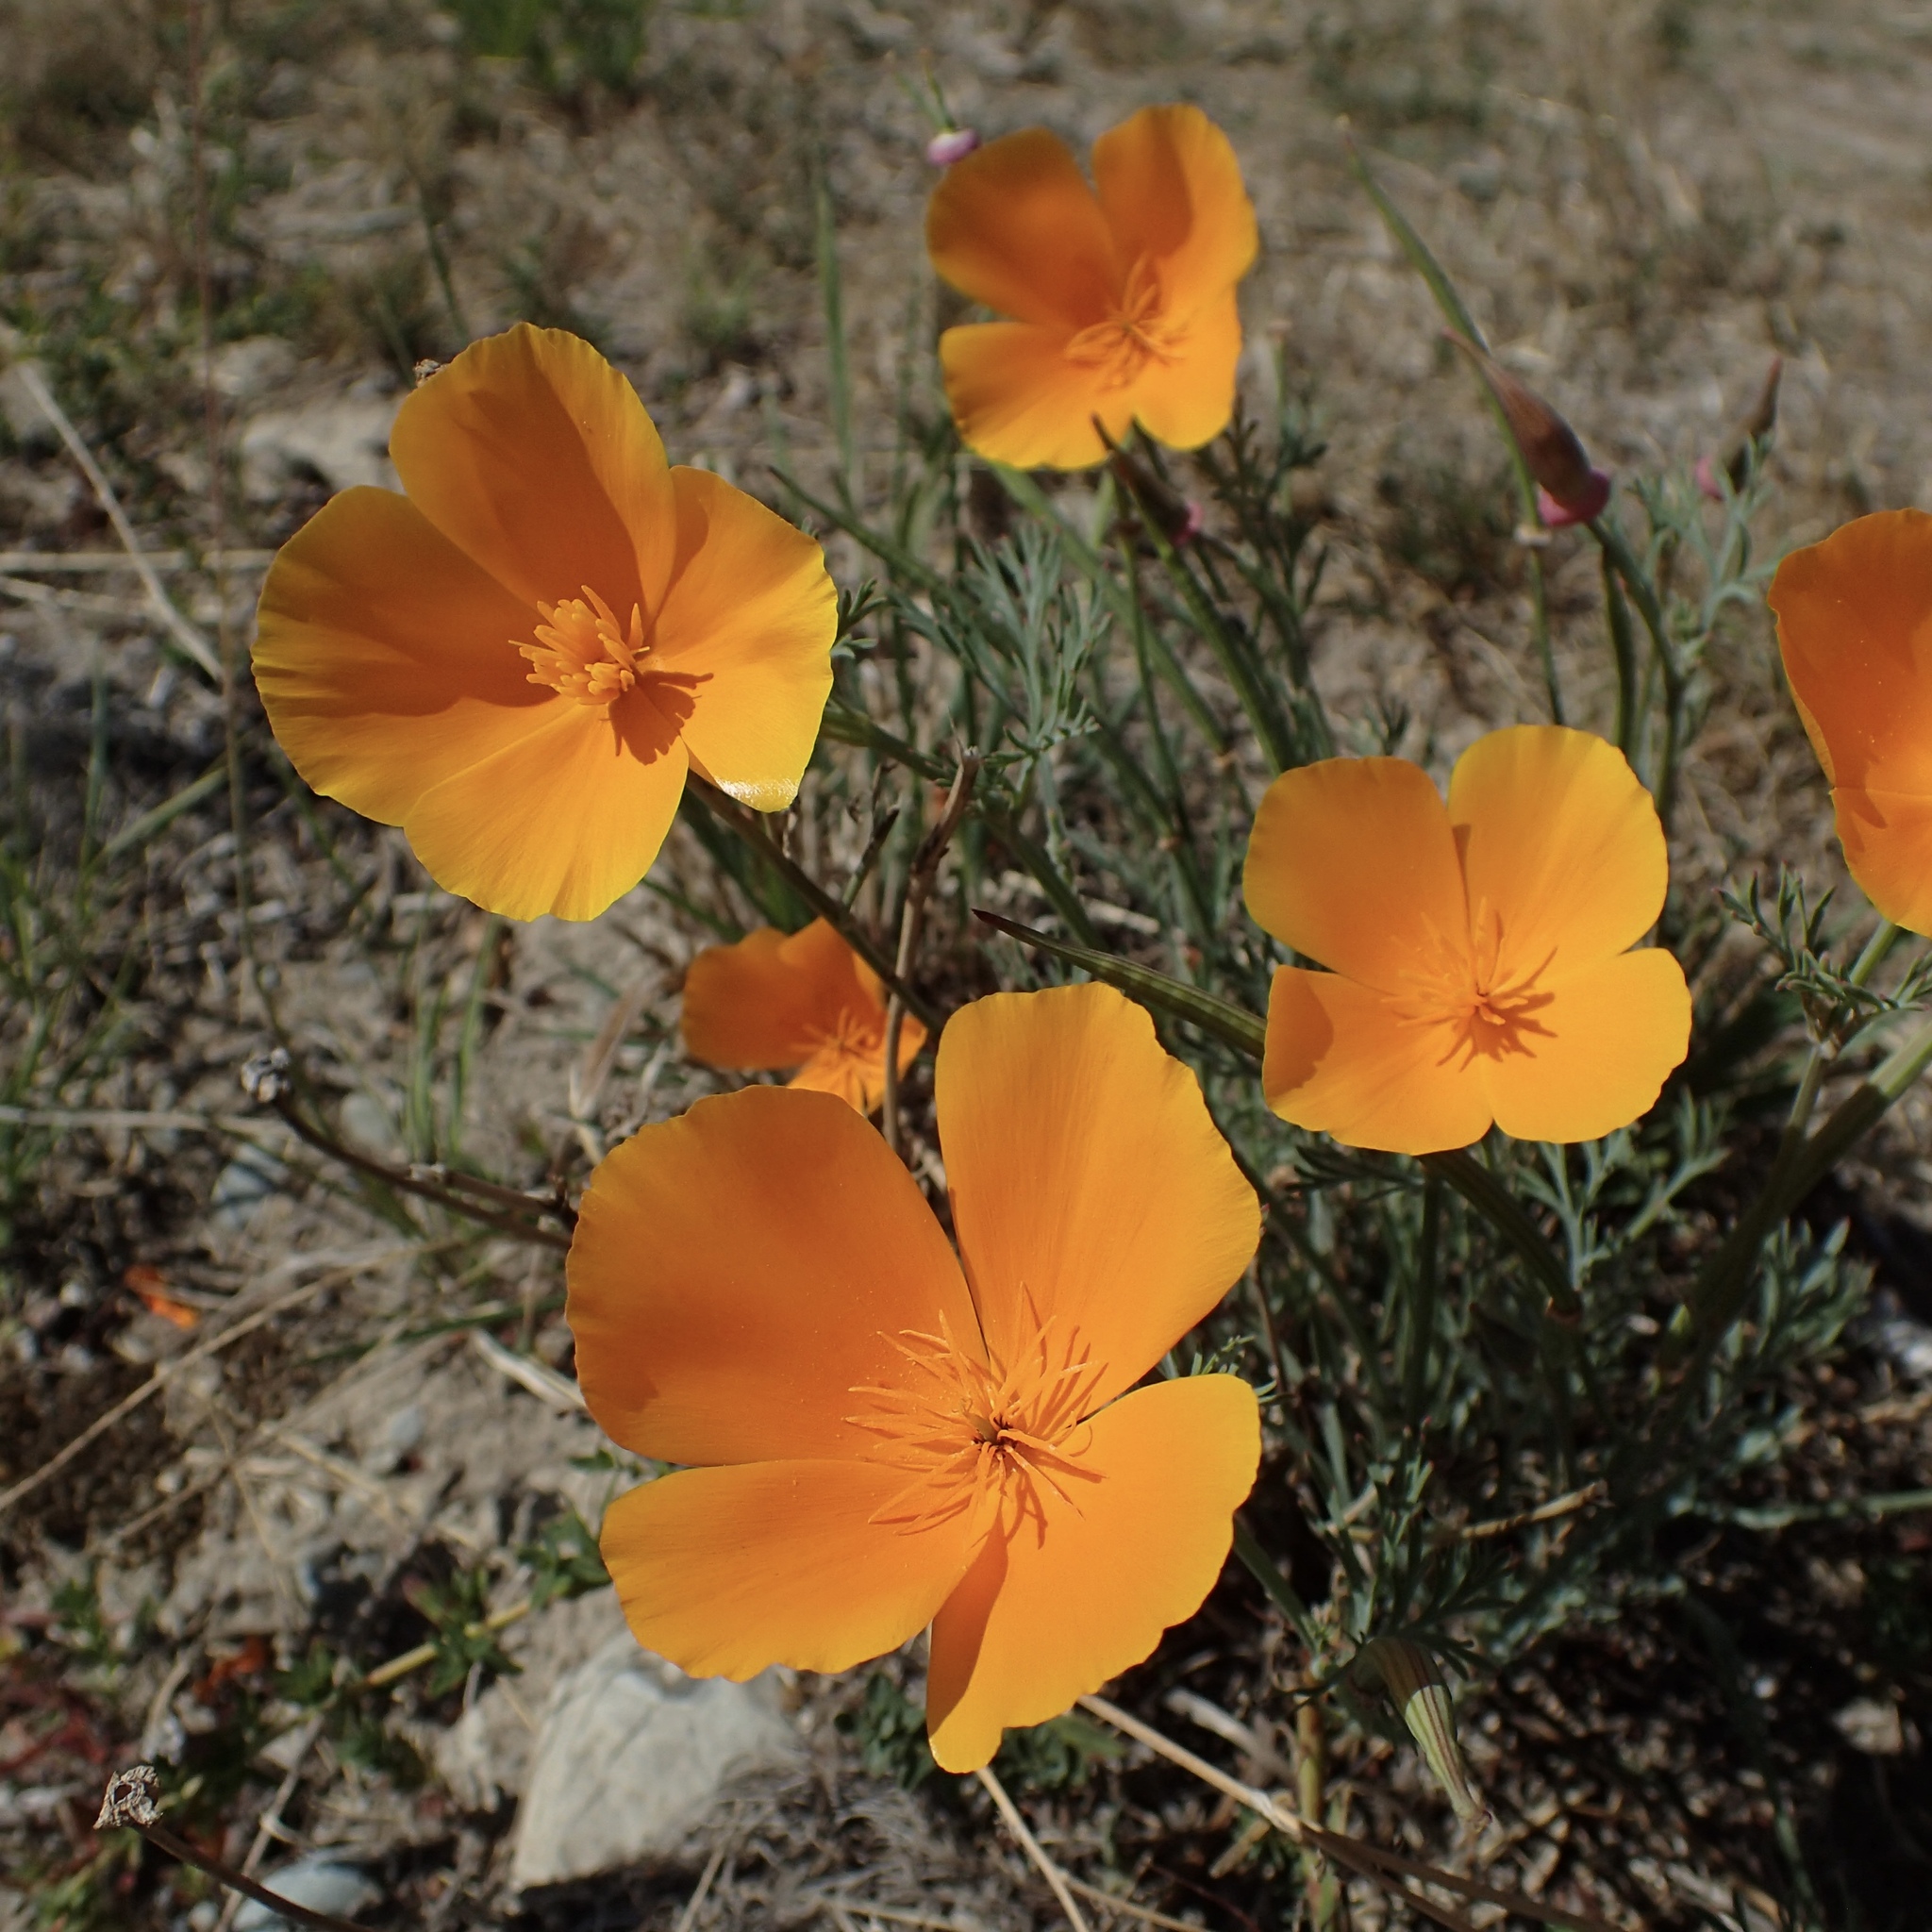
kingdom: Plantae
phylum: Tracheophyta
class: Magnoliopsida
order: Ranunculales
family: Papaveraceae
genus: Eschscholzia
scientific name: Eschscholzia californica
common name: California poppy
